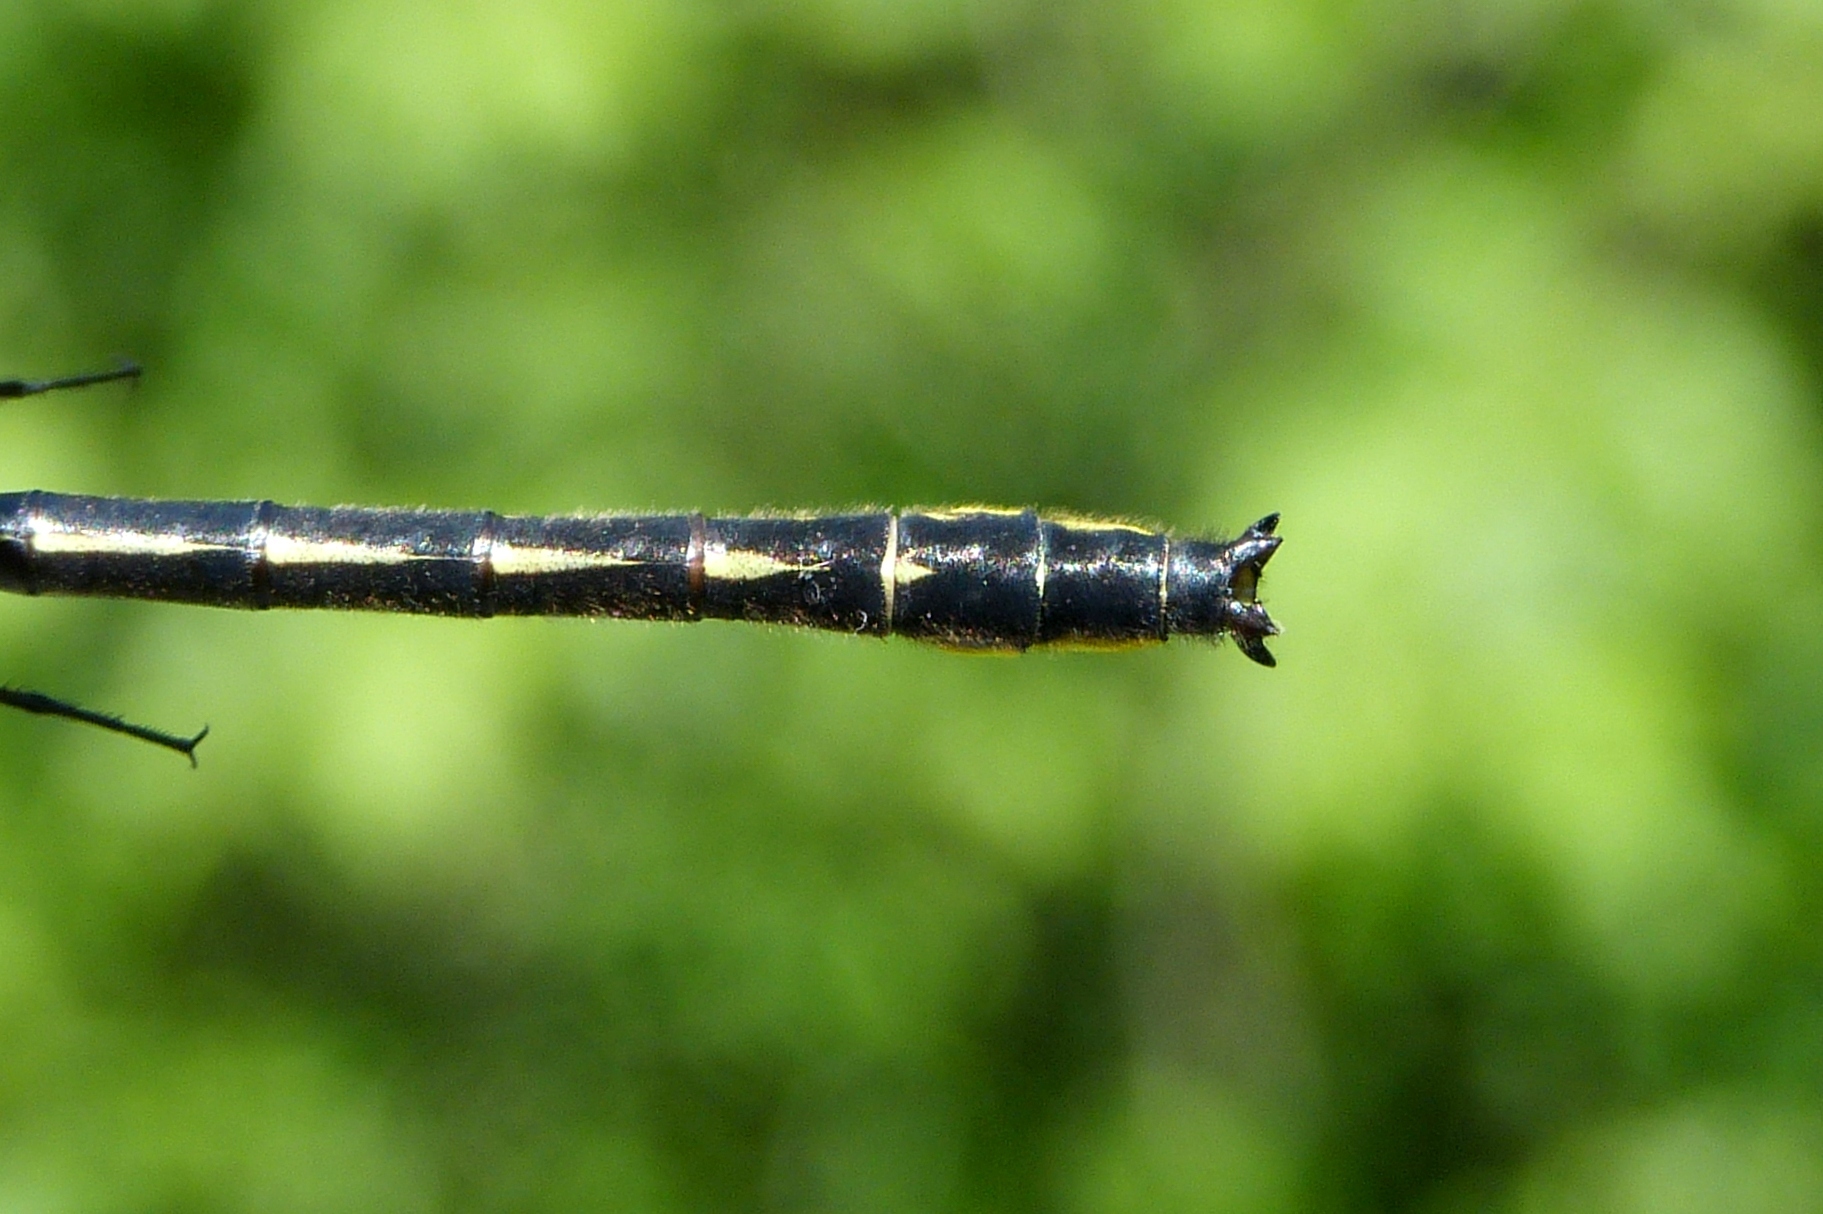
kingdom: Animalia
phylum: Arthropoda
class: Insecta
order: Odonata
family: Gomphidae
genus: Phanogomphus
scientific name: Phanogomphus borealis
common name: Beaverpond clubtail
